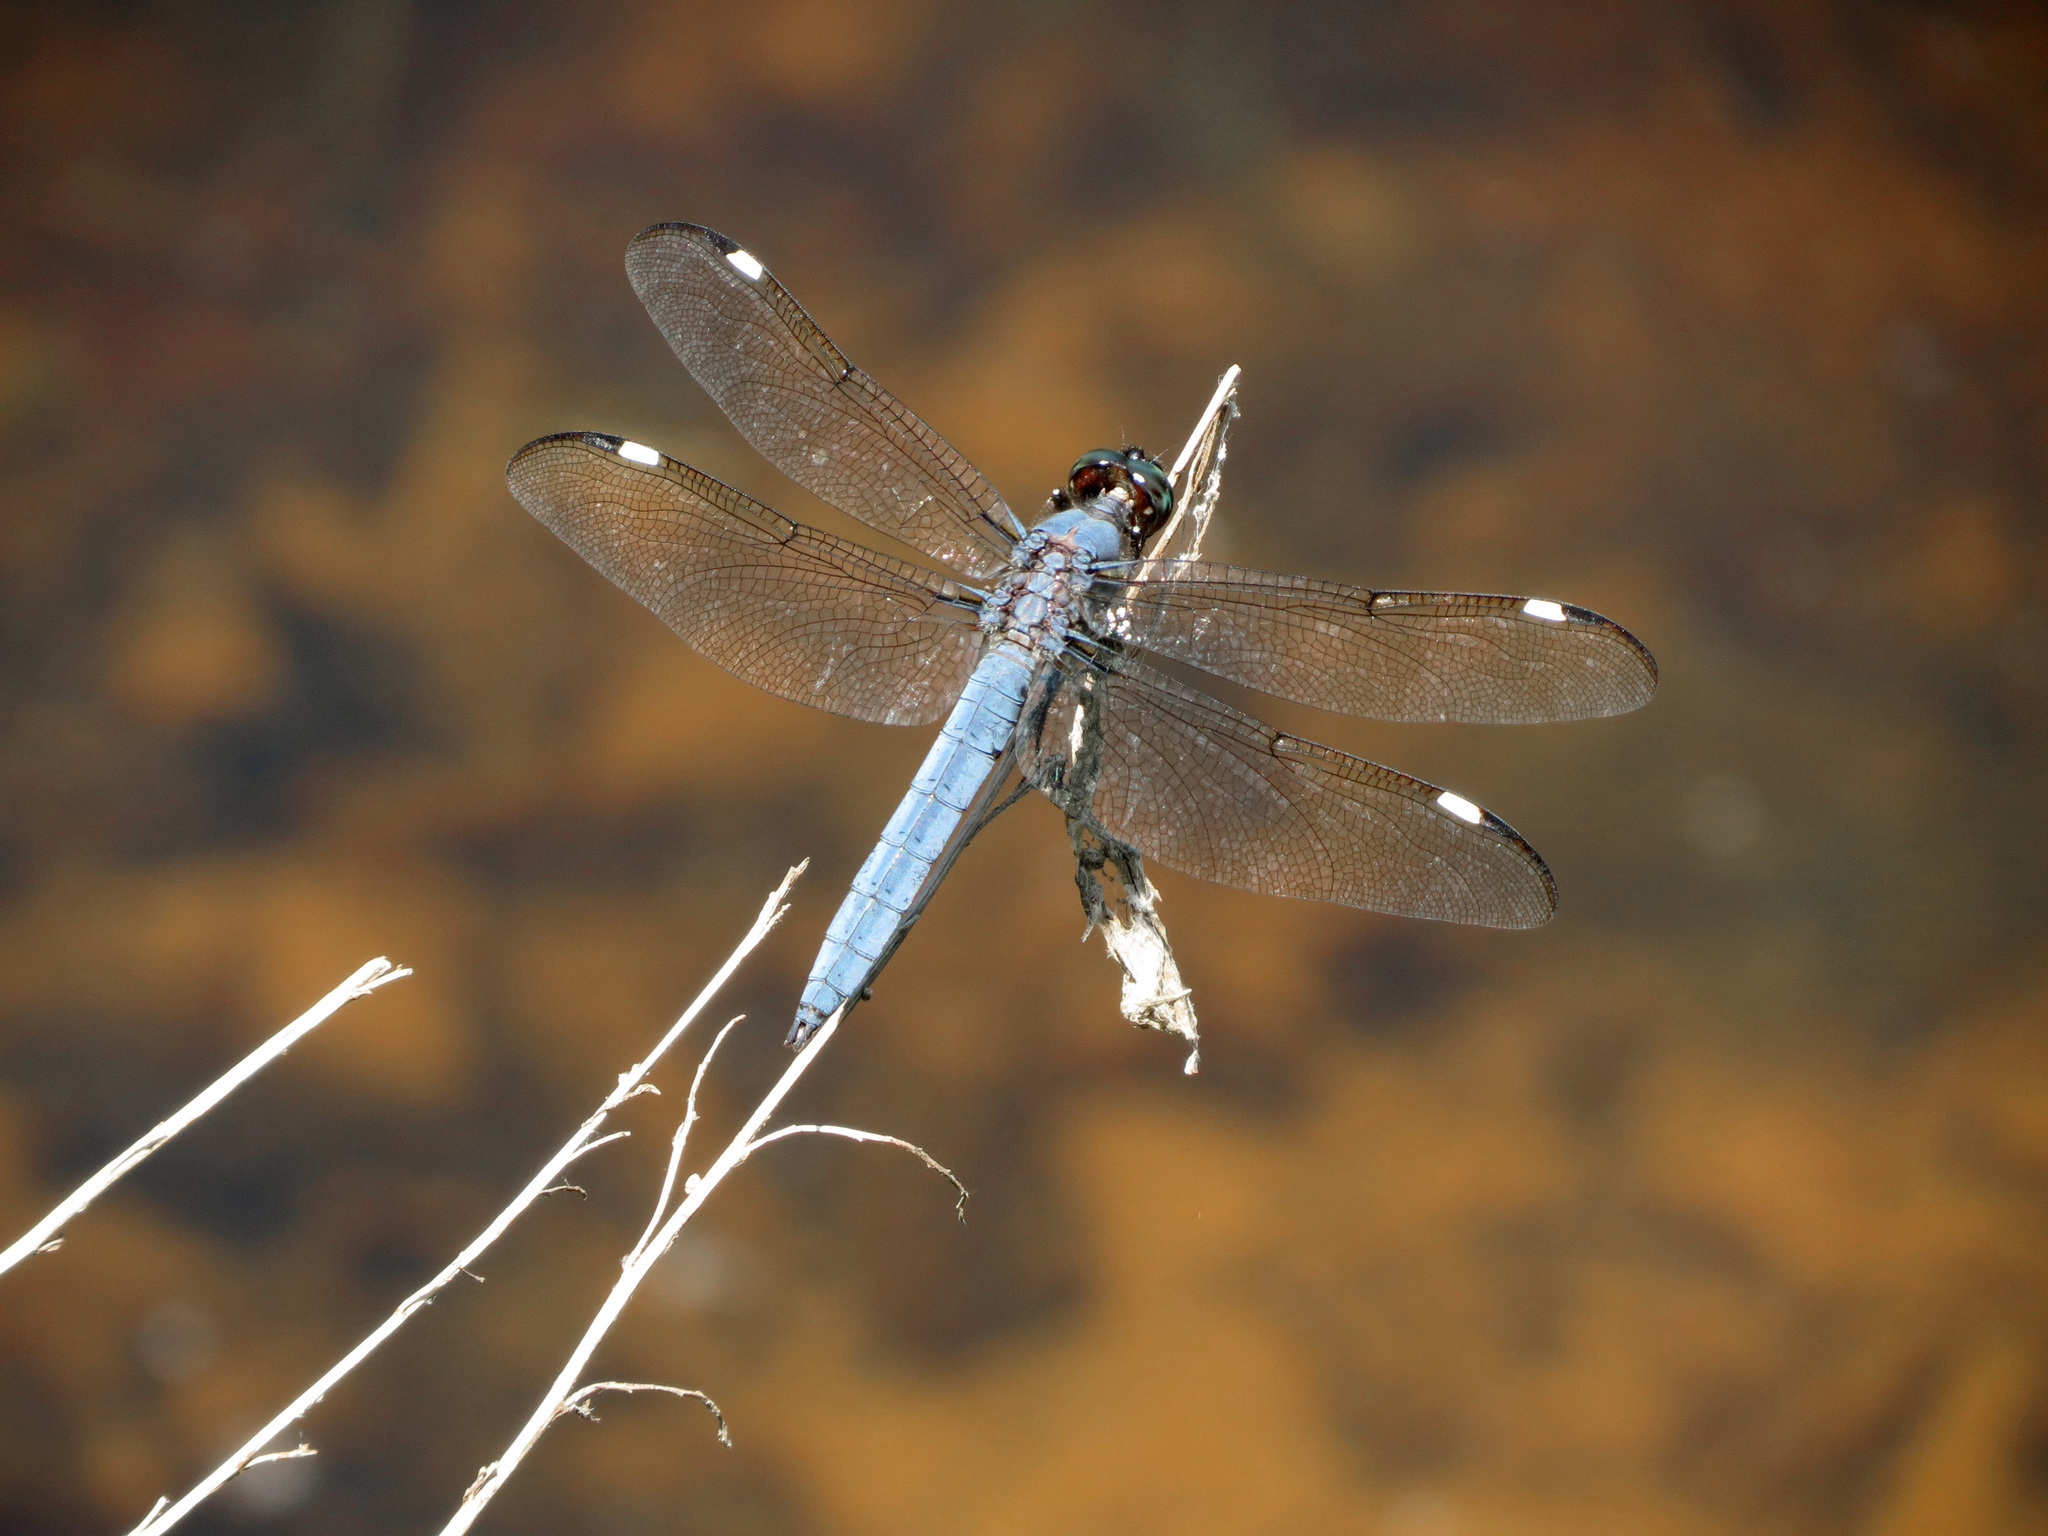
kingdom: Animalia
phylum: Arthropoda
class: Insecta
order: Odonata
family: Libellulidae
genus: Libellula
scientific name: Libellula cyanea
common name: Spangled skimmer
